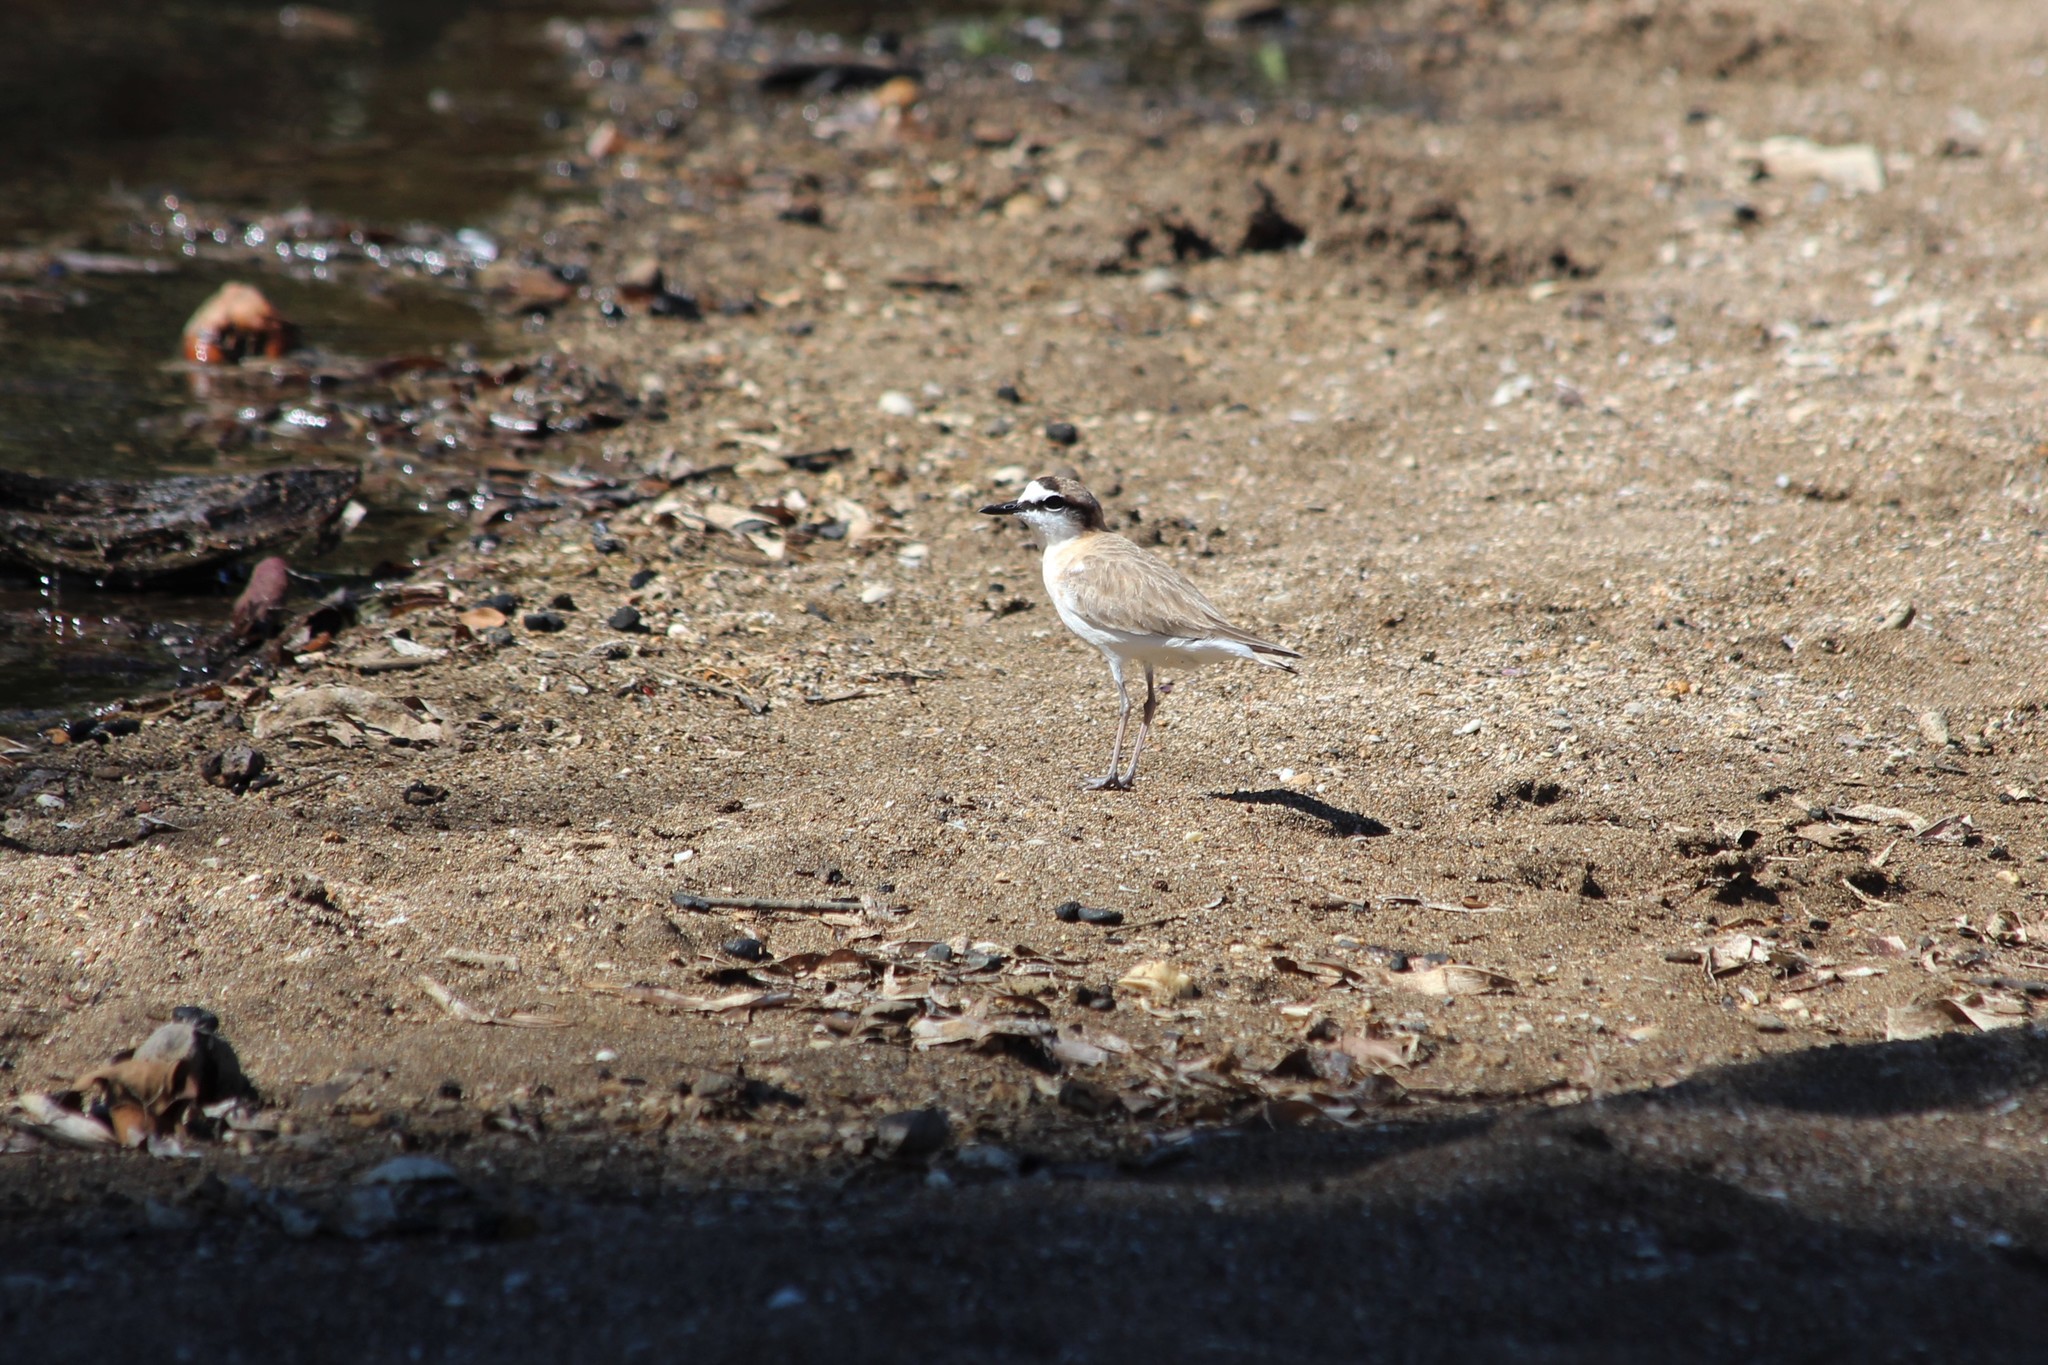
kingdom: Animalia
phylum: Chordata
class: Aves
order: Charadriiformes
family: Charadriidae
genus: Anarhynchus
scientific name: Anarhynchus
